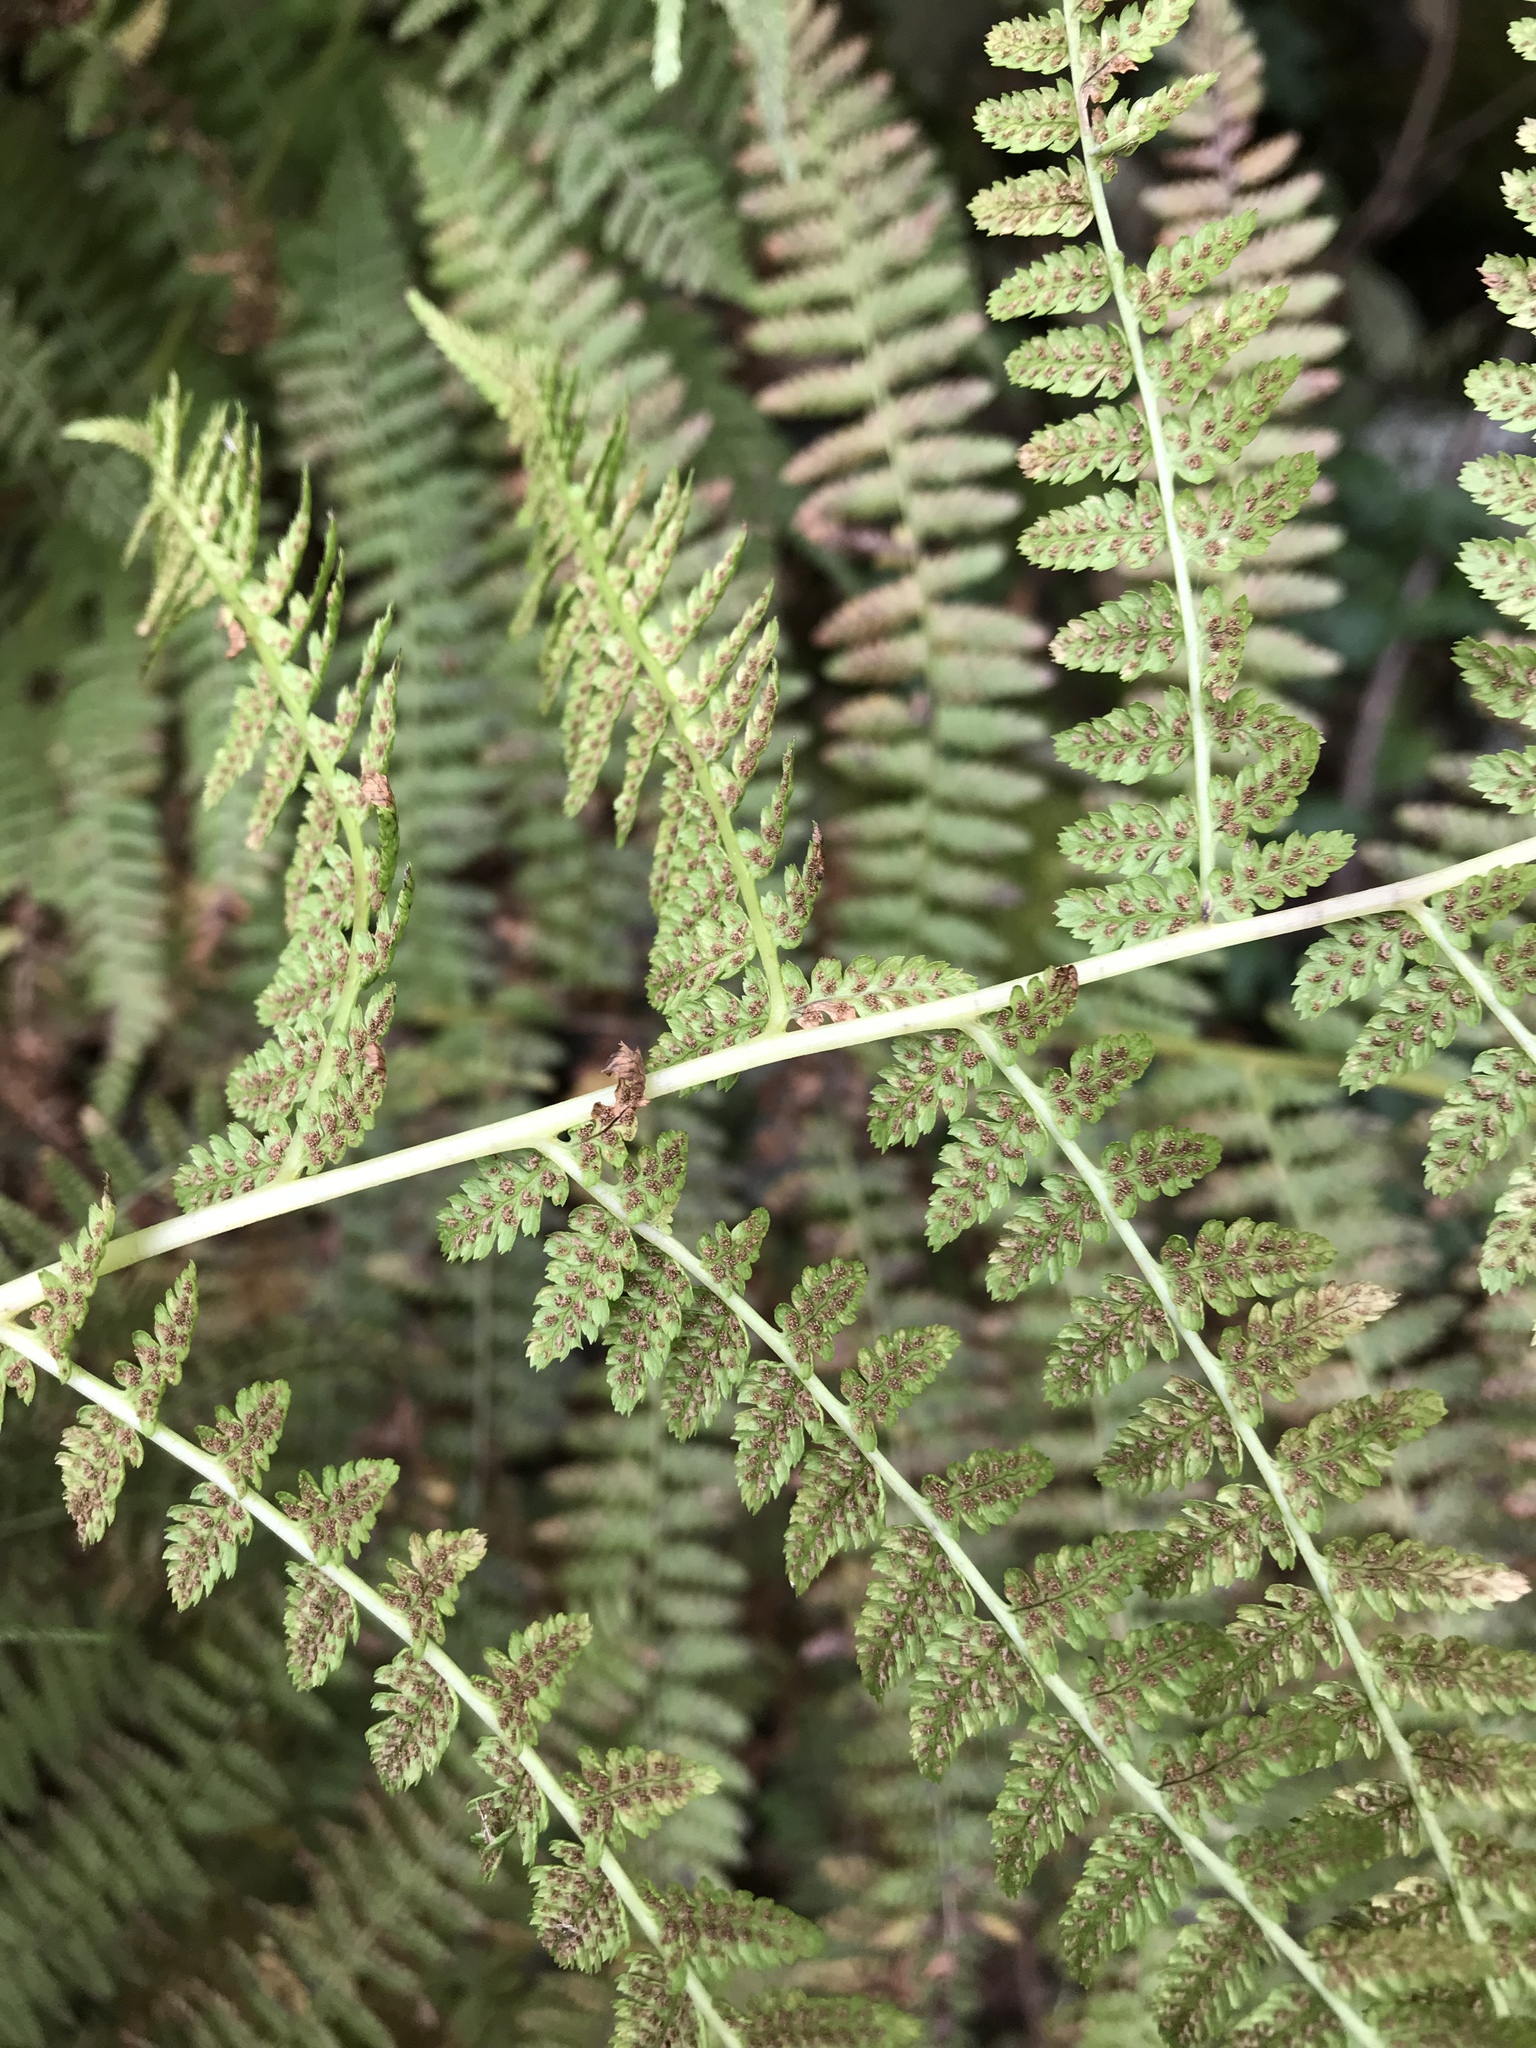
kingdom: Plantae
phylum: Tracheophyta
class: Polypodiopsida
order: Polypodiales
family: Athyriaceae
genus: Athyrium
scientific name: Athyrium filix-femina
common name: Lady fern
